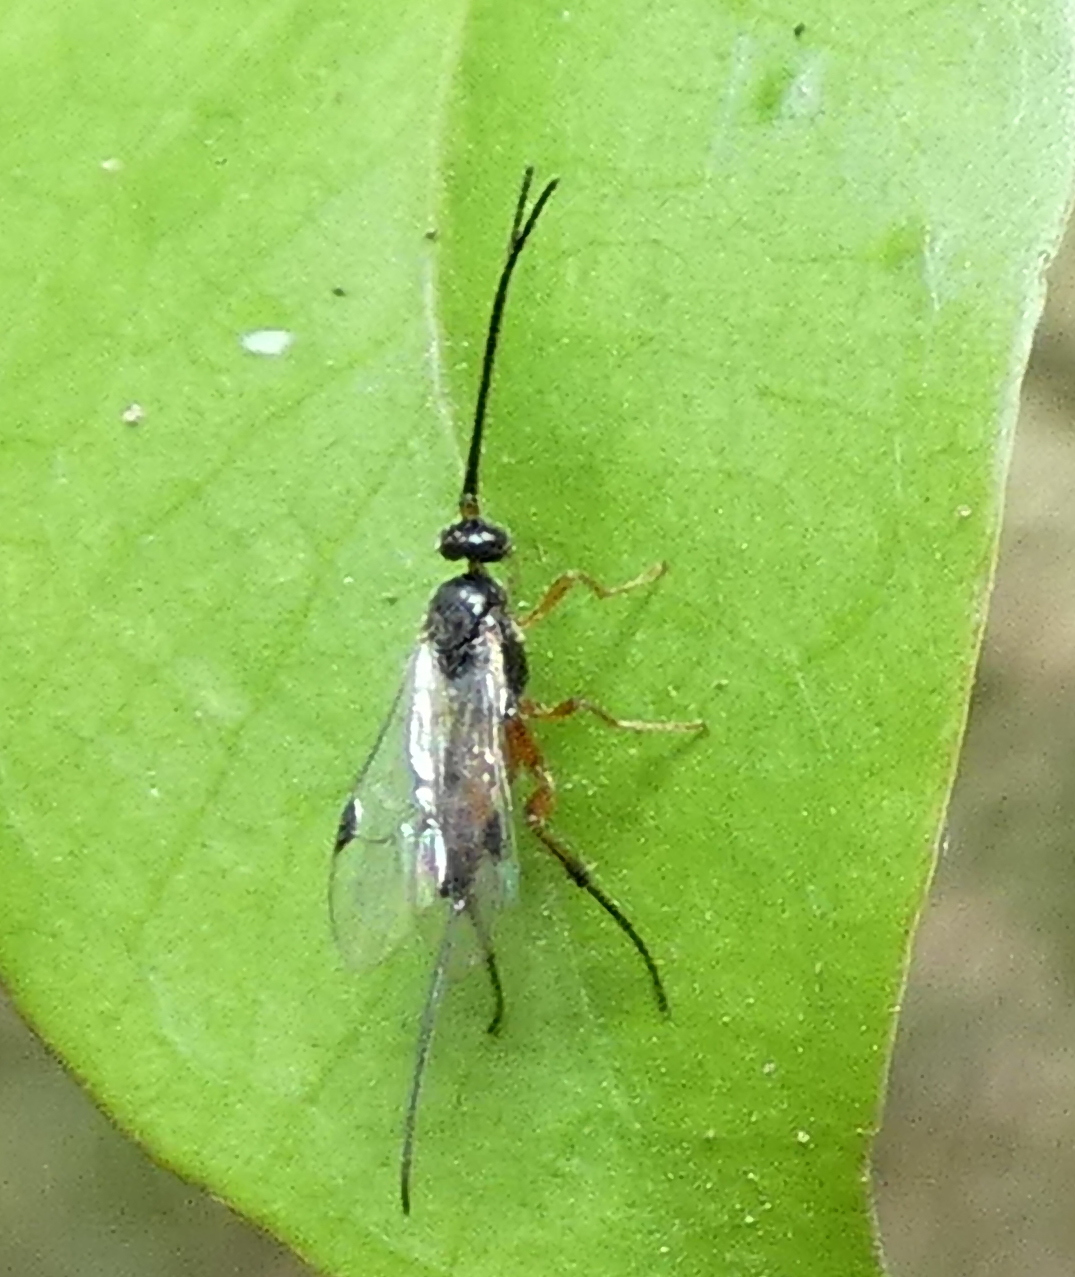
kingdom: Animalia
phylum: Arthropoda
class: Insecta
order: Hymenoptera
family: Braconidae
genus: Promicrogaster
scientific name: Promicrogaster
